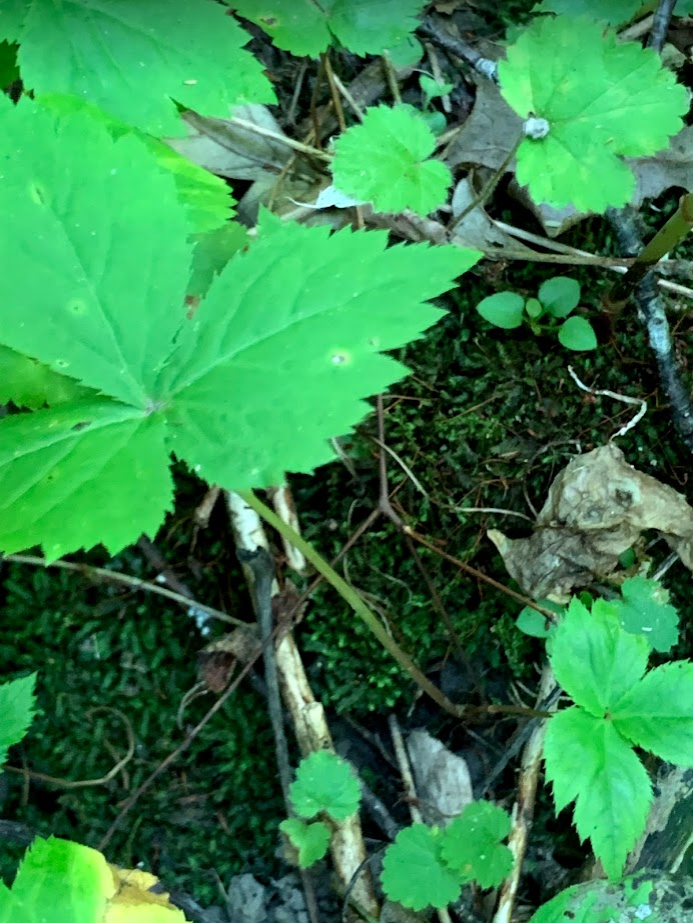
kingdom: Plantae
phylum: Tracheophyta
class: Magnoliopsida
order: Rosales
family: Rosaceae
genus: Rubus
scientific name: Rubus pubescens
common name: Dwarf raspberry
